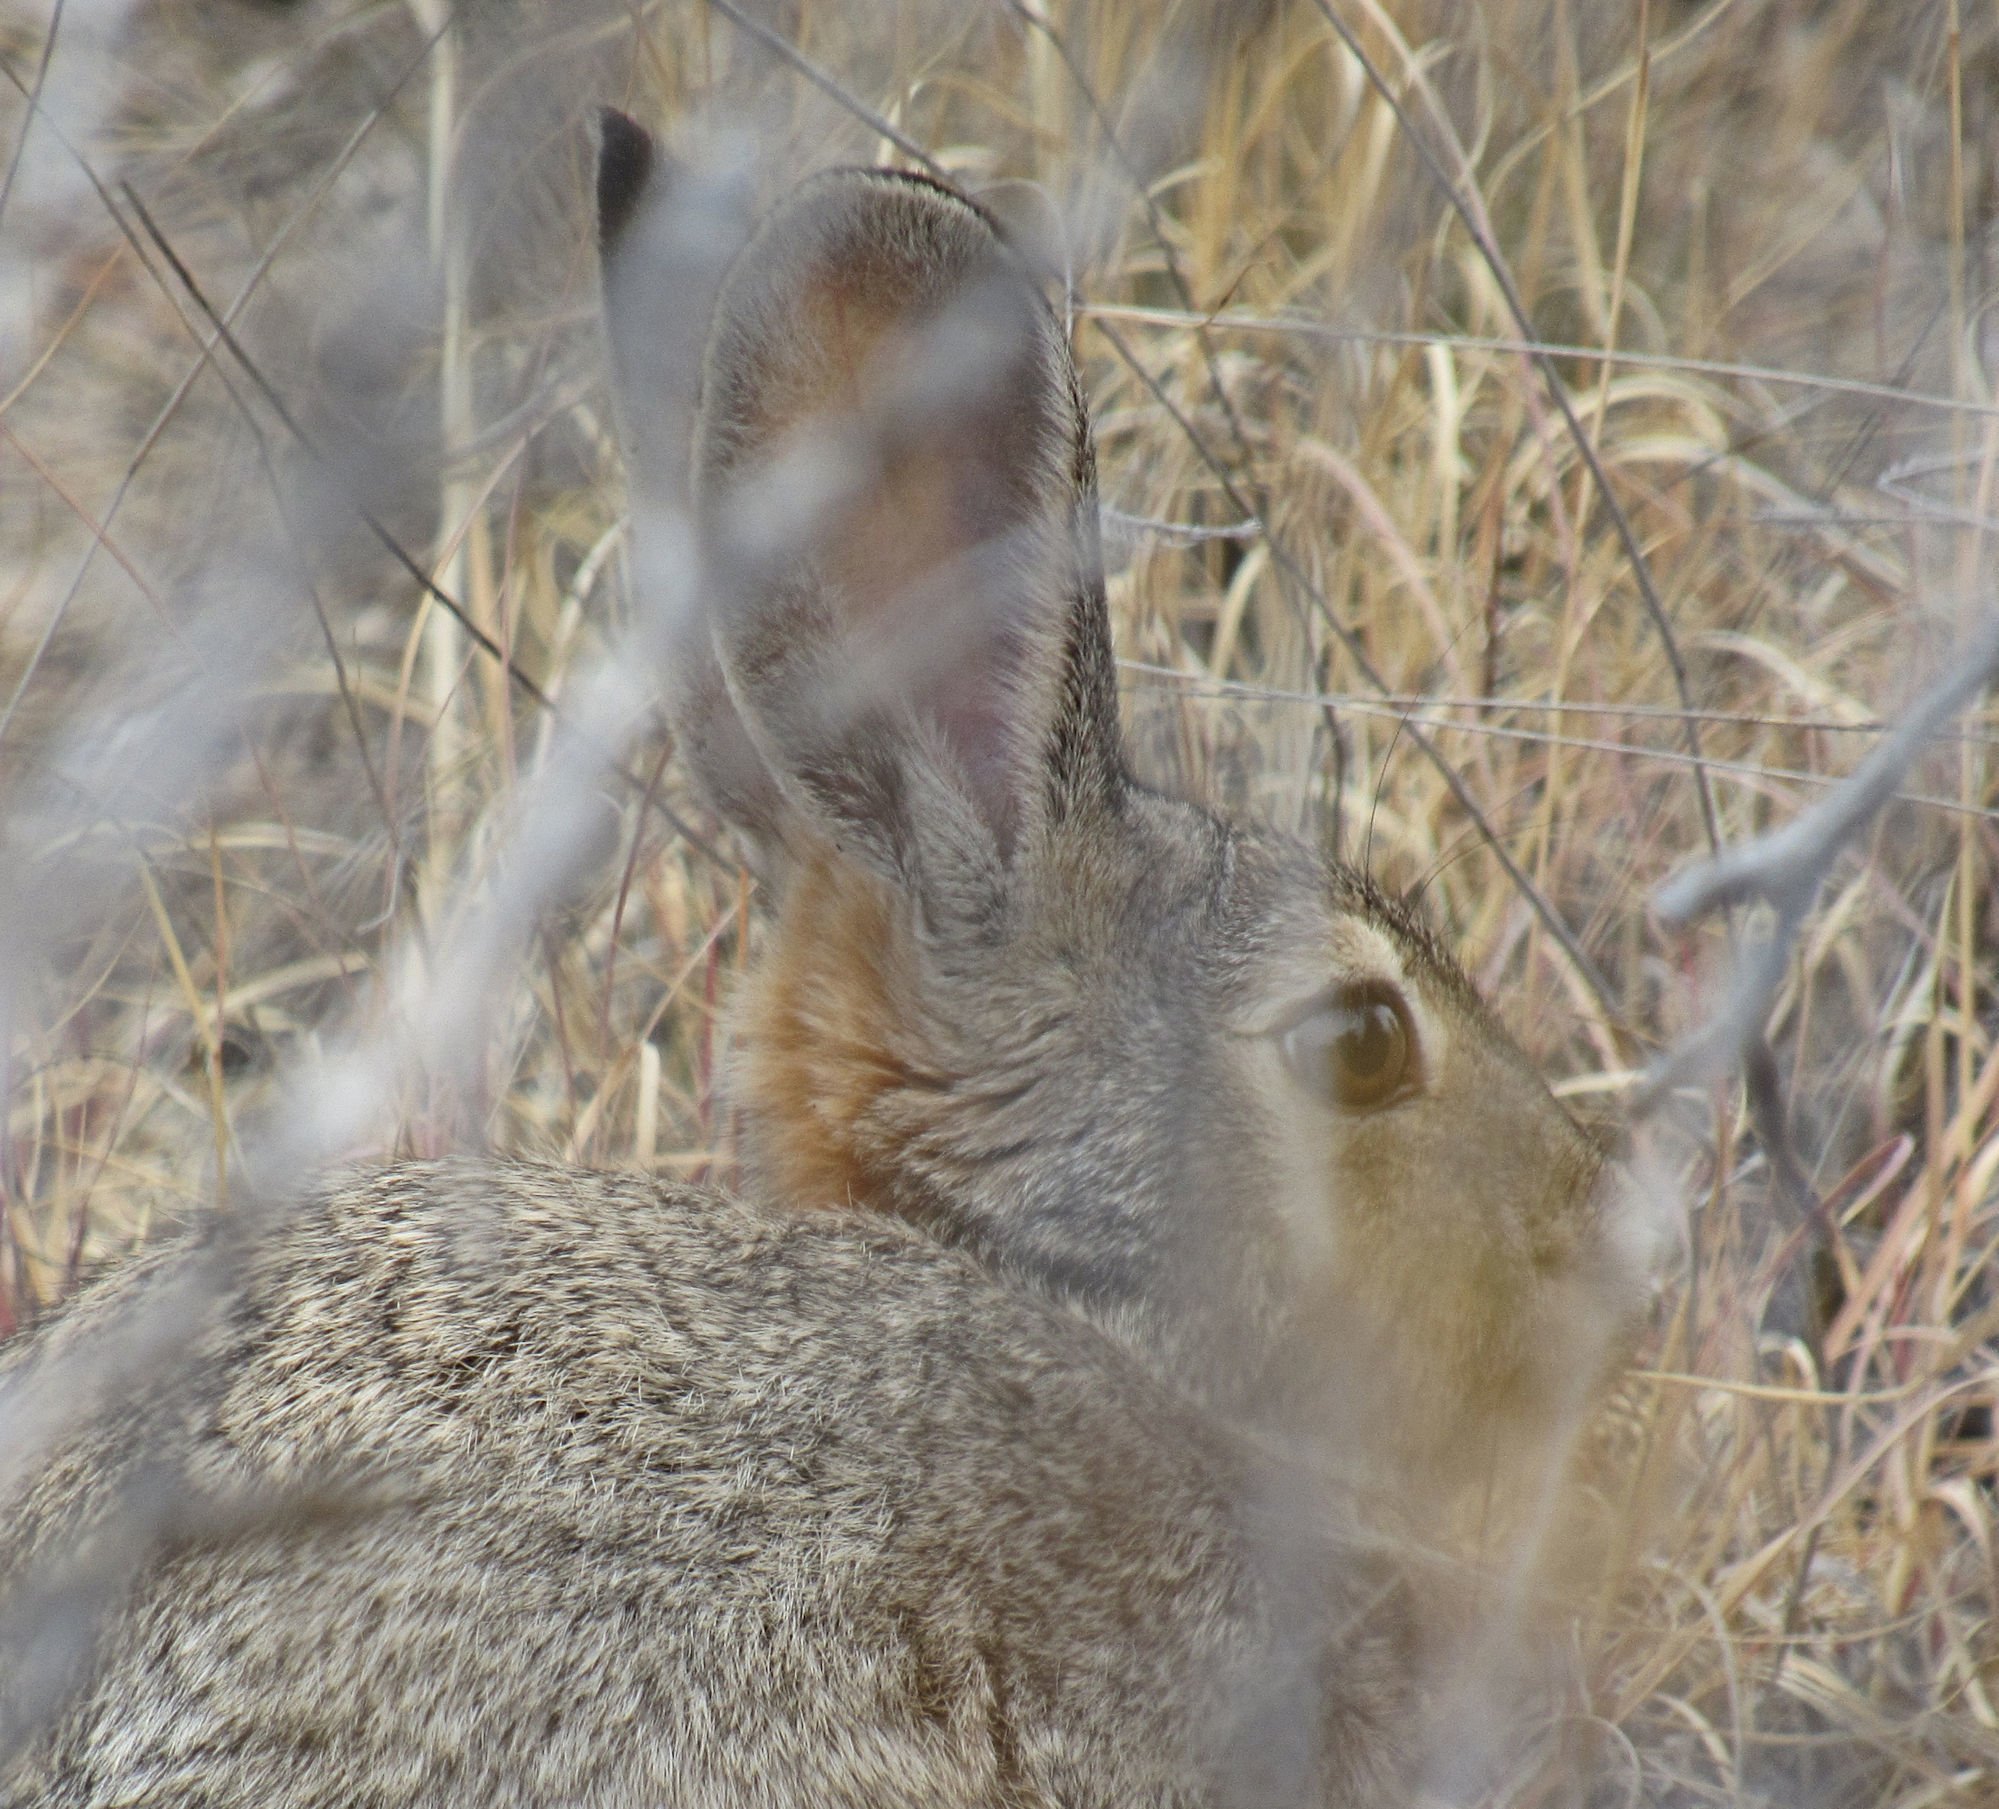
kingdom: Animalia
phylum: Chordata
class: Mammalia
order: Lagomorpha
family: Leporidae
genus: Sylvilagus
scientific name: Sylvilagus audubonii
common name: Desert cottontail
